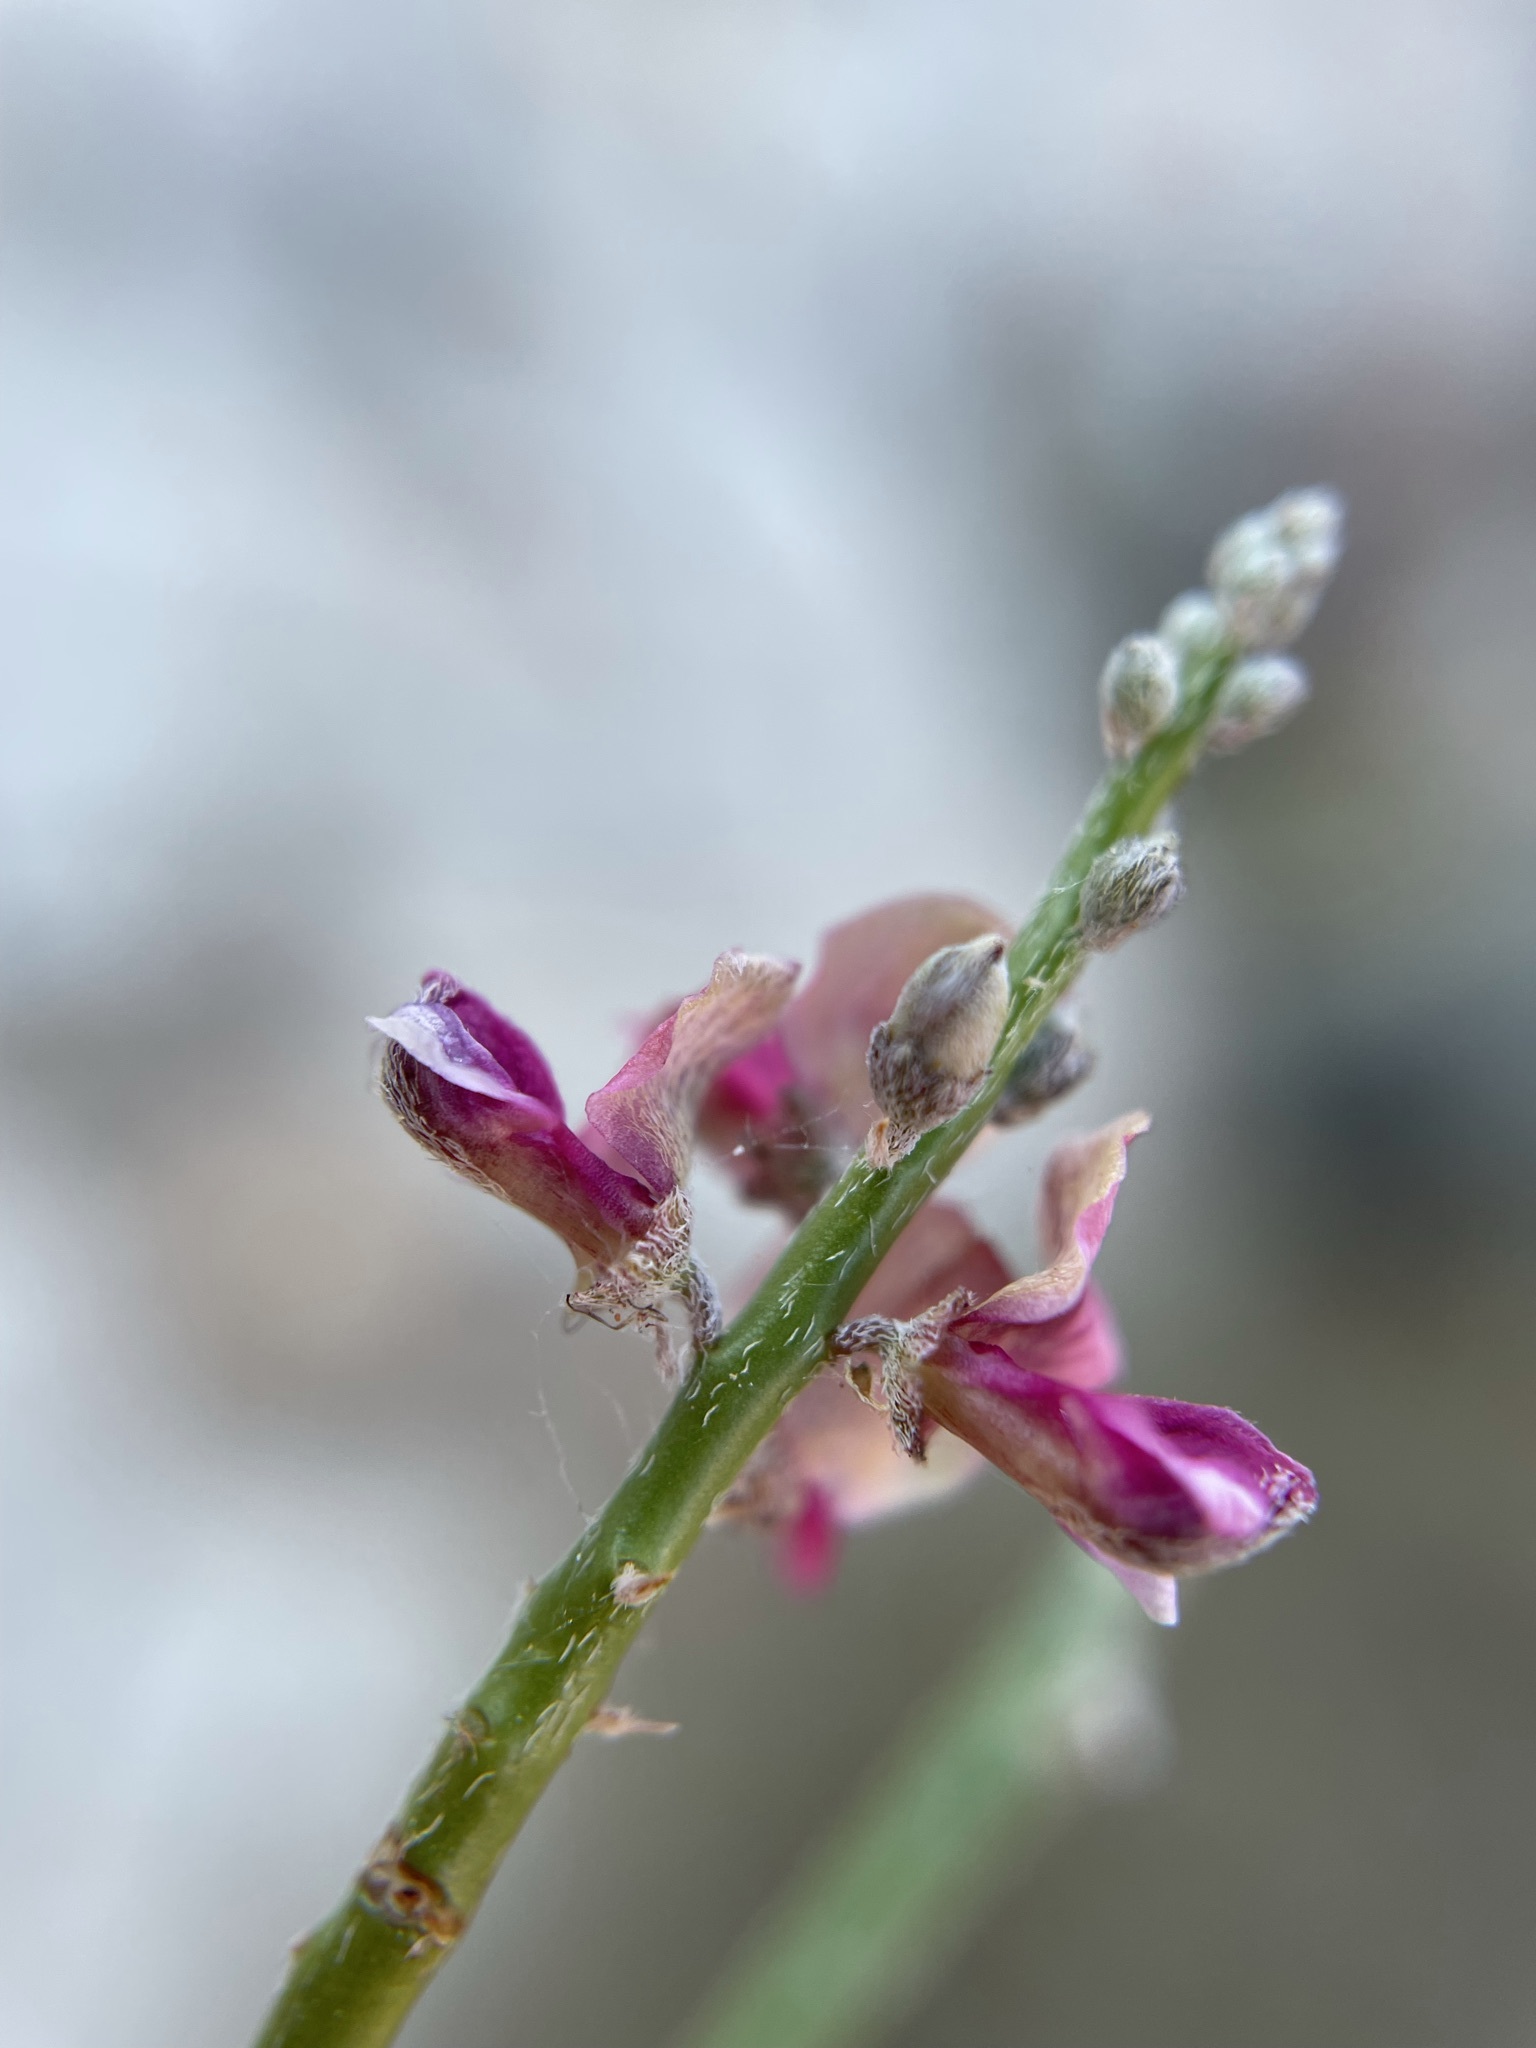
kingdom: Plantae
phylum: Tracheophyta
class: Magnoliopsida
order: Fabales
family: Fabaceae
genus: Indigofera
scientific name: Indigofera pungens
